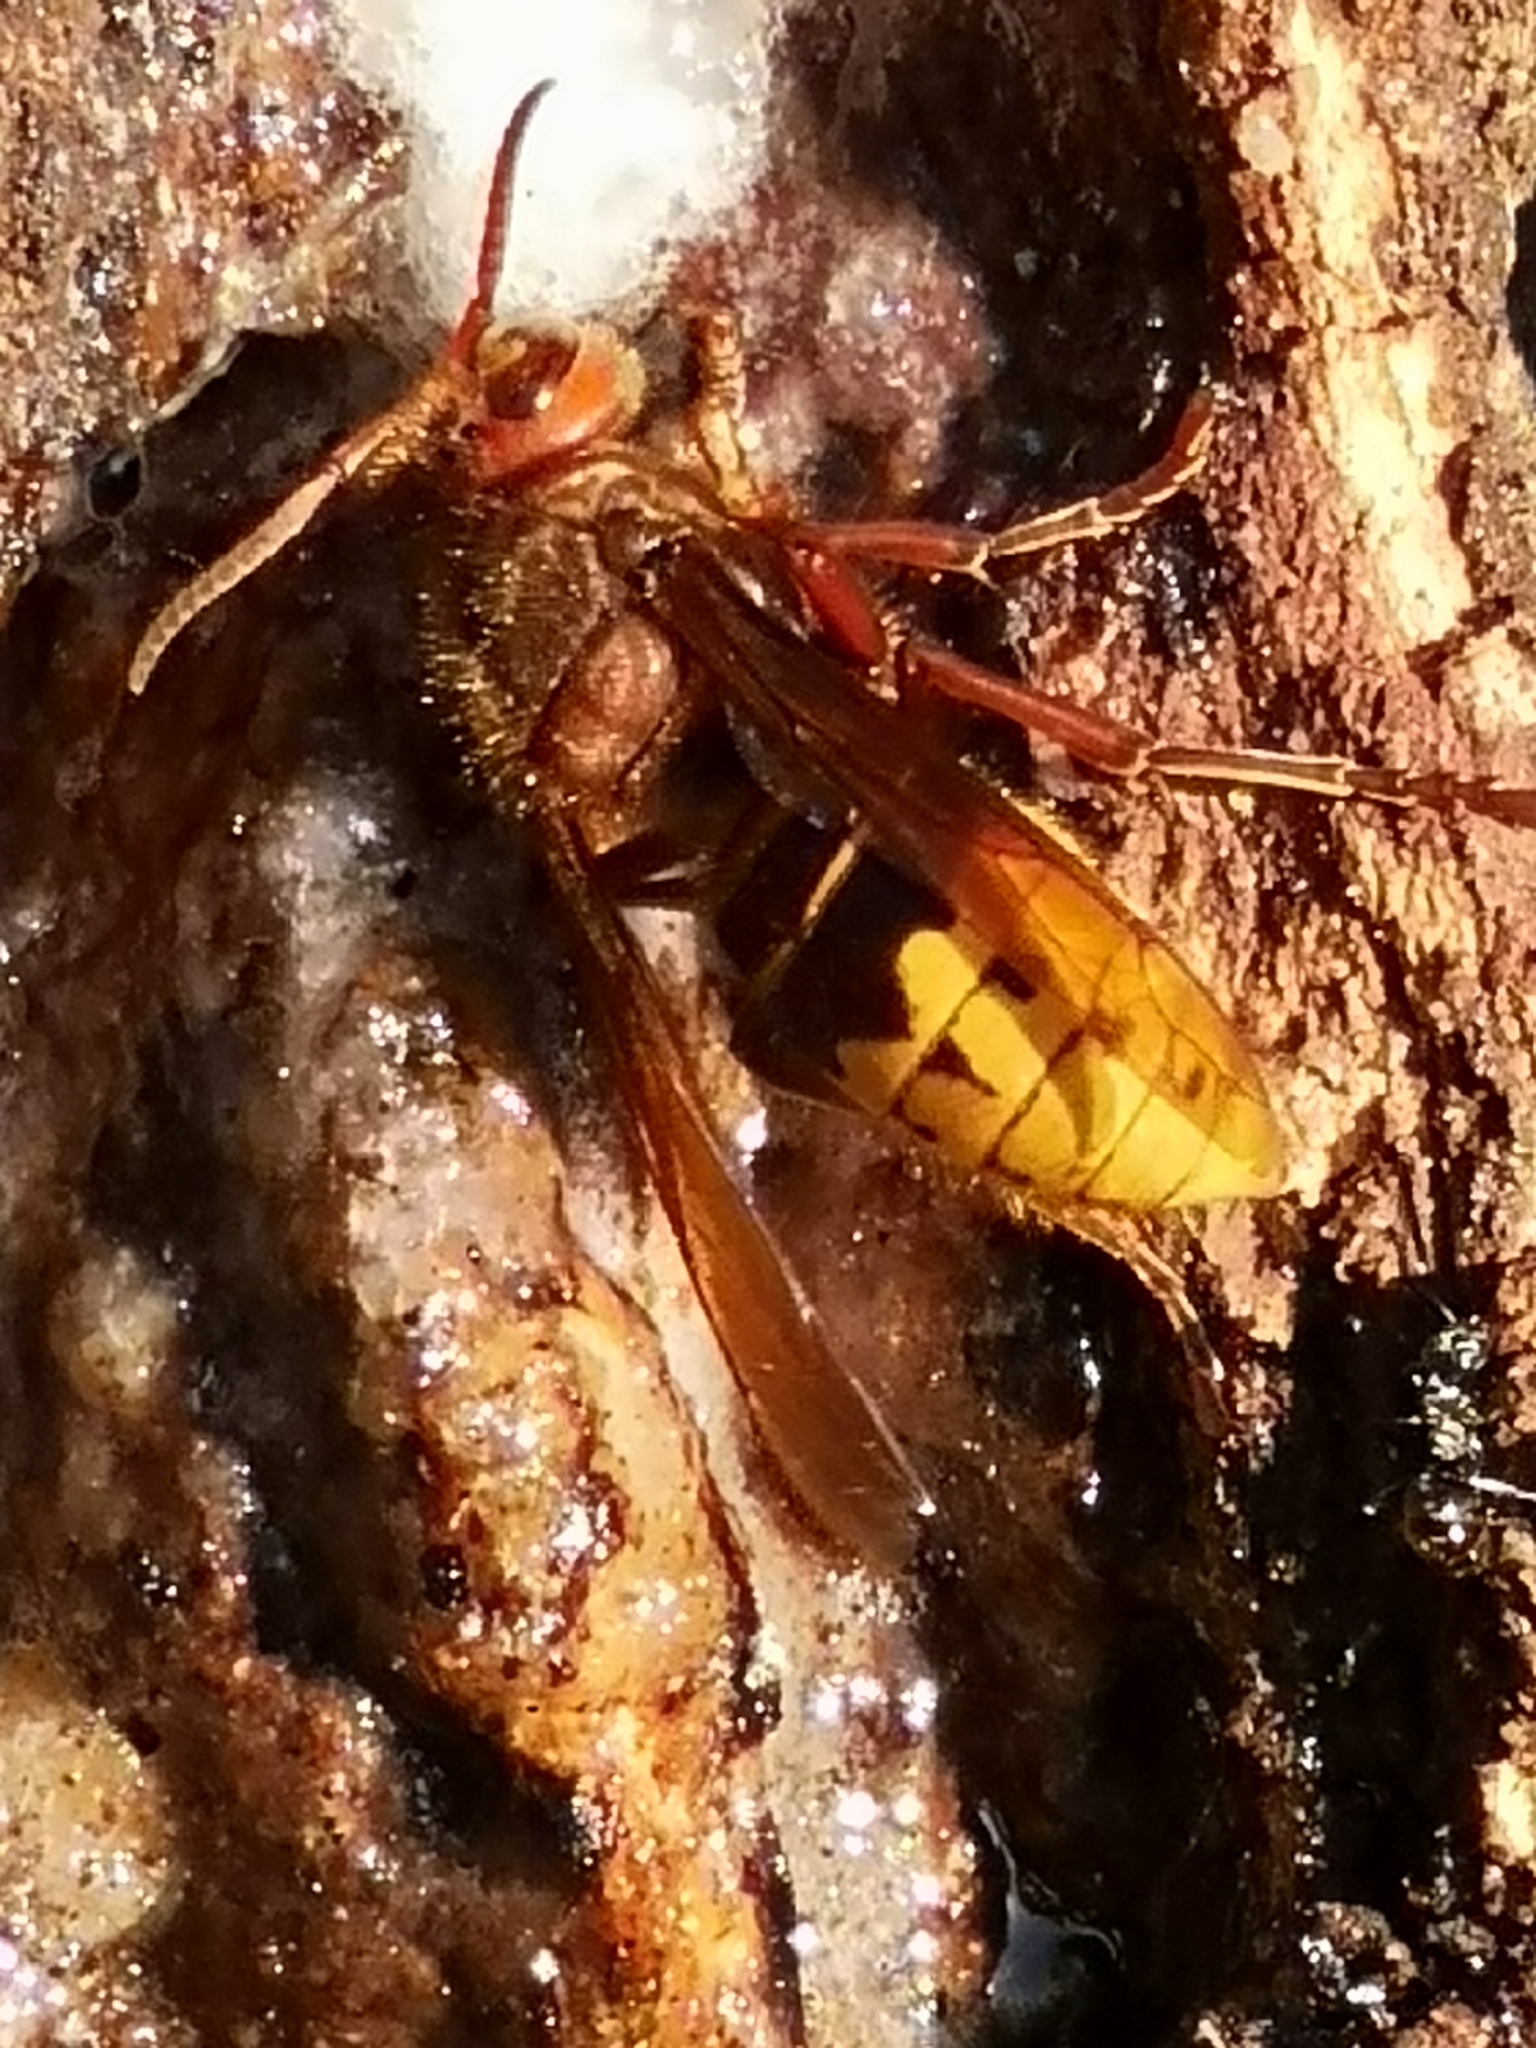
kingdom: Animalia
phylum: Arthropoda
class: Insecta
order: Hymenoptera
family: Vespidae
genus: Vespa
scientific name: Vespa crabro
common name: Hornet
